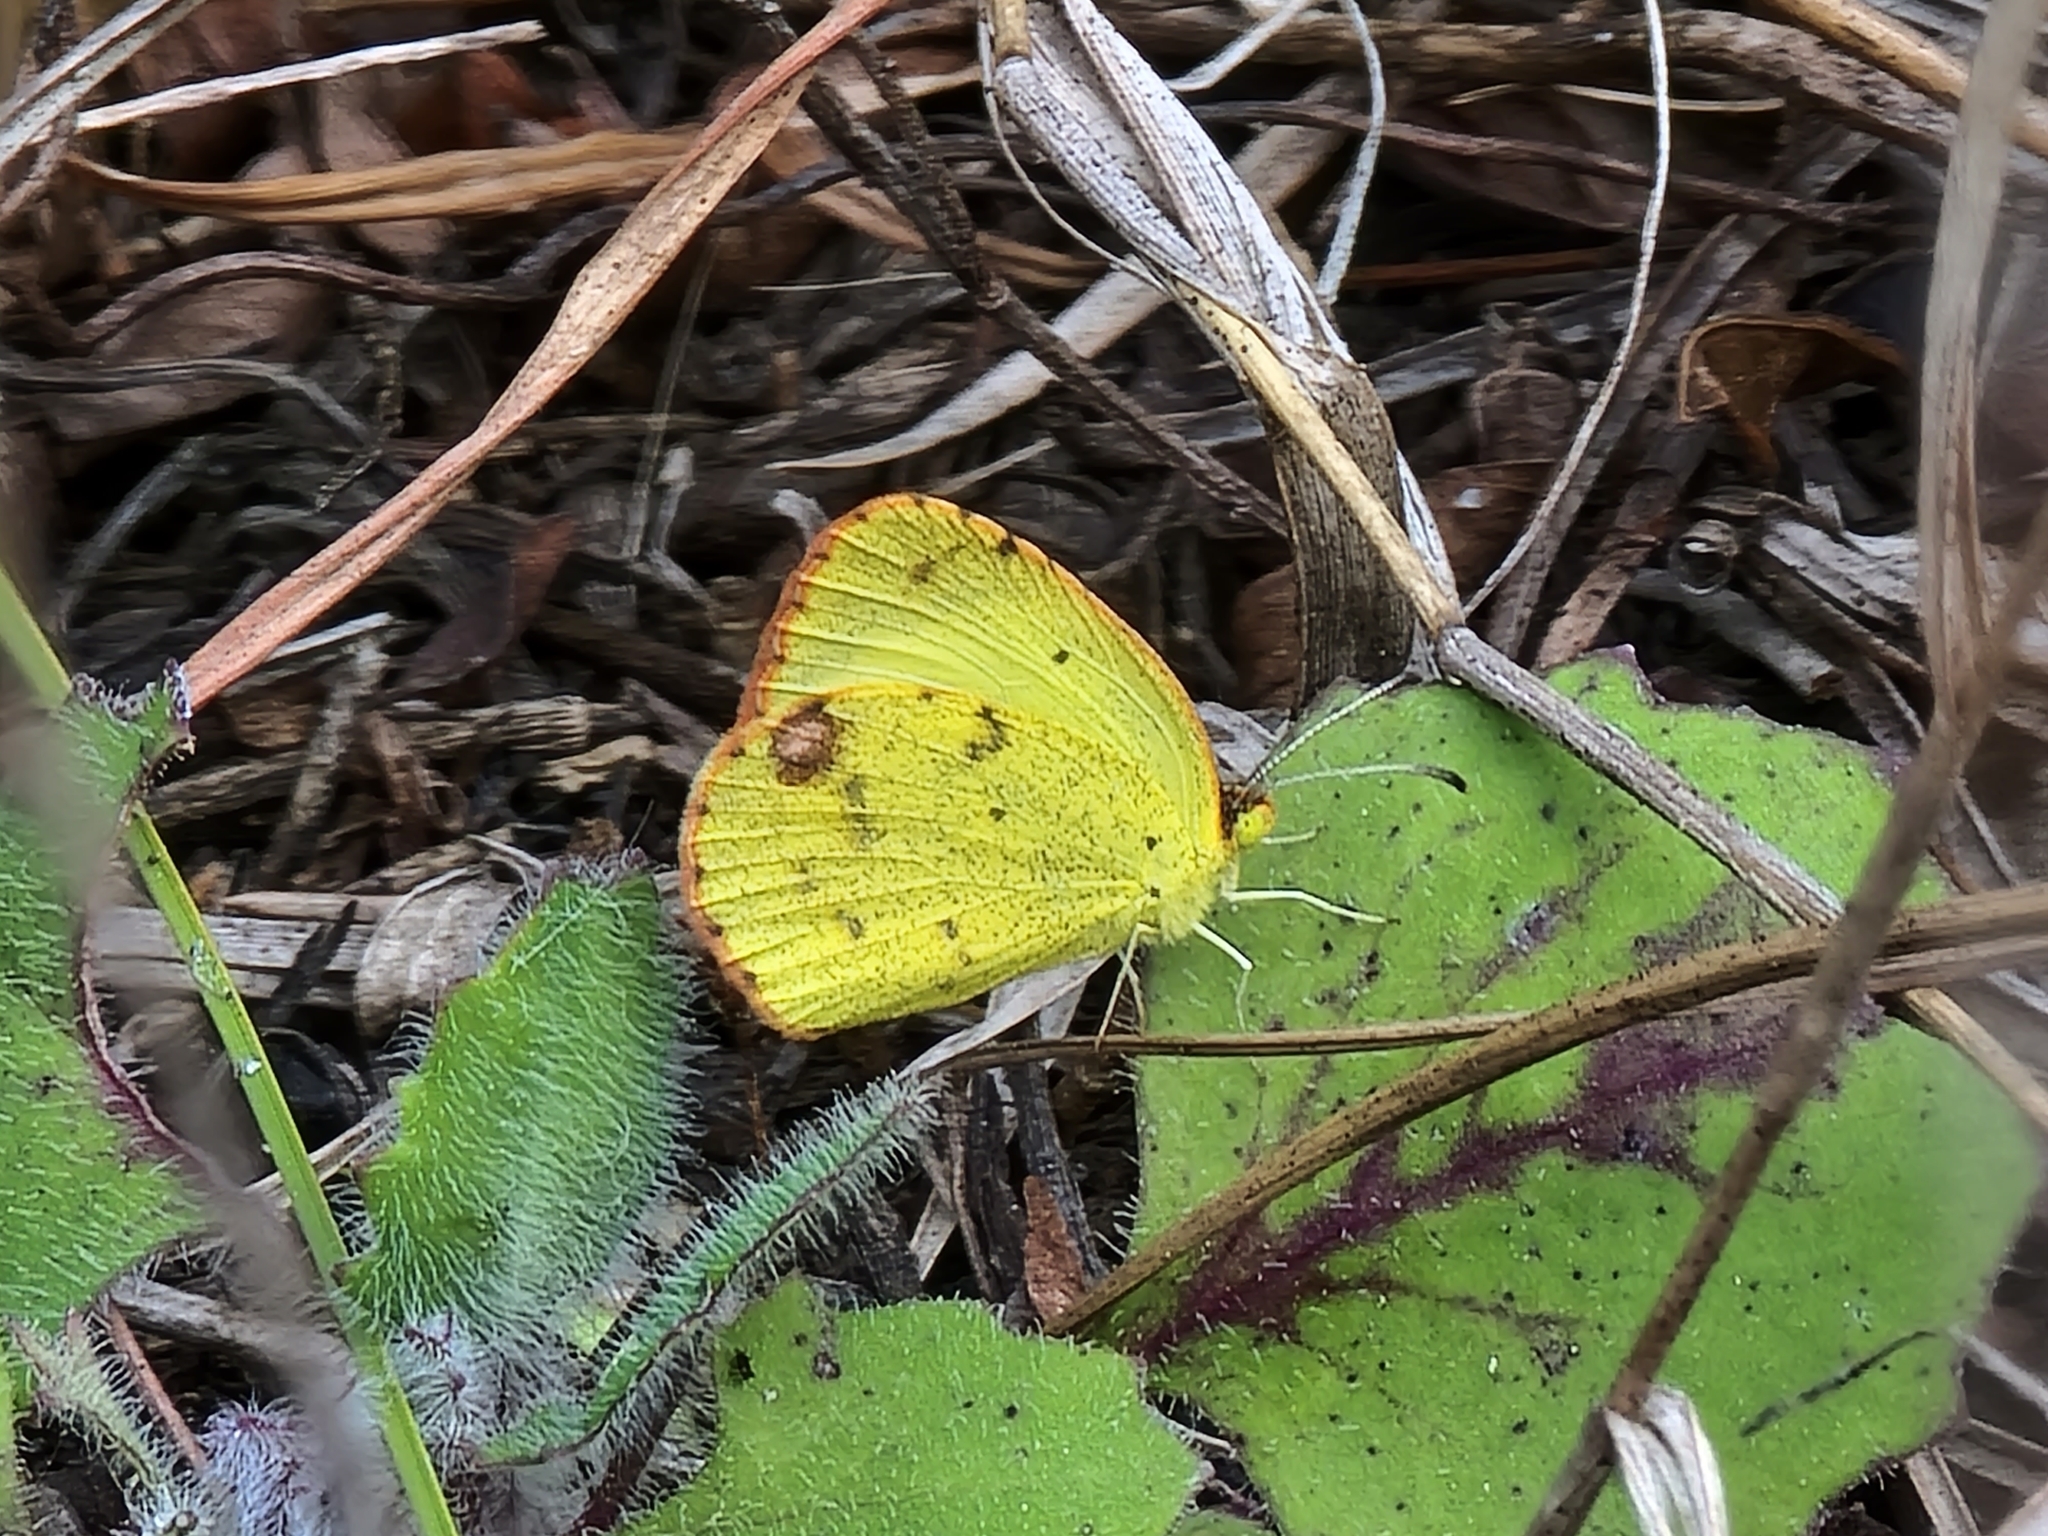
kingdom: Animalia
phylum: Arthropoda
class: Insecta
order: Lepidoptera
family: Pieridae
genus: Pyrisitia
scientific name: Pyrisitia lisa
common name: Little yellow
